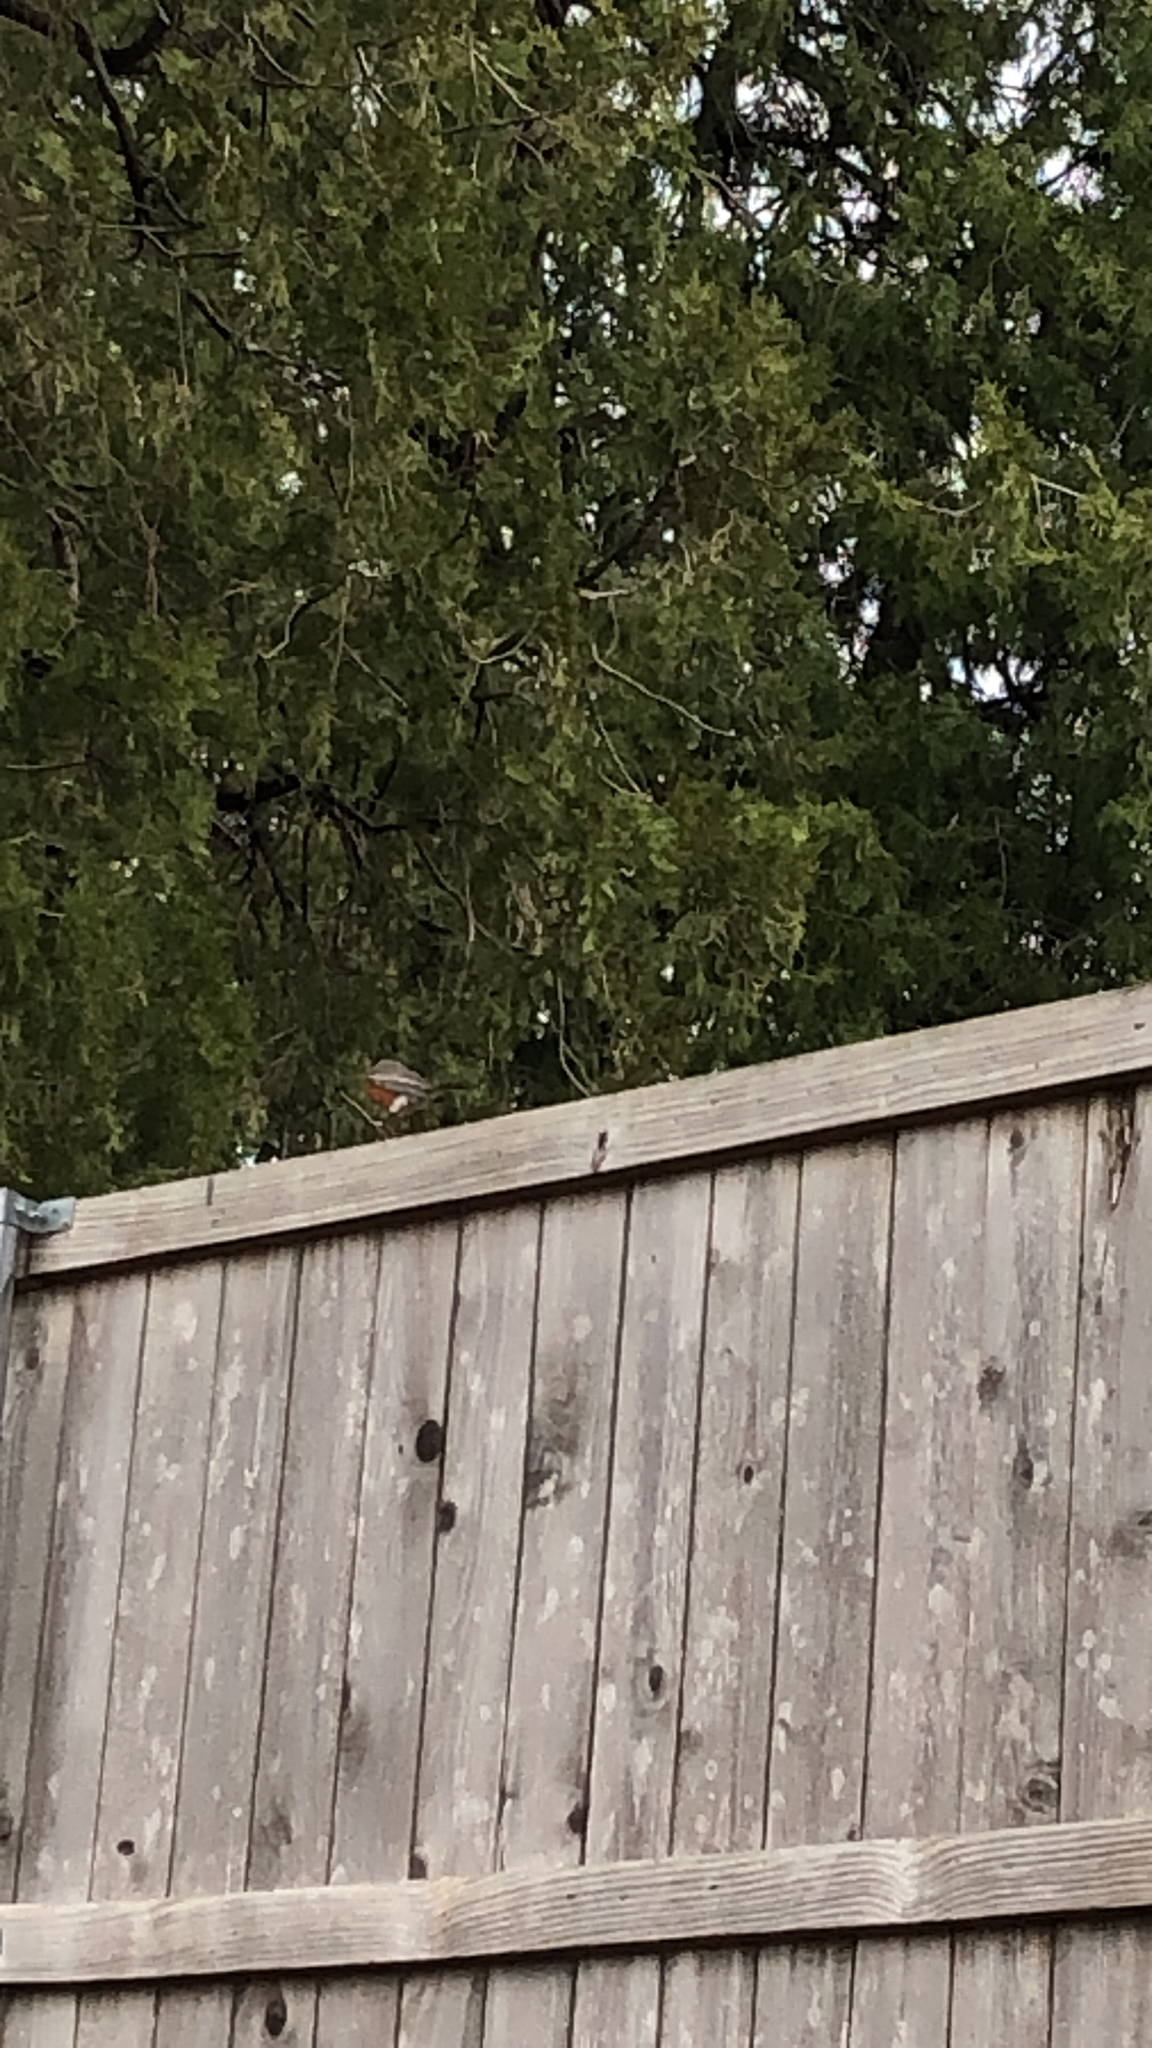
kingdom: Animalia
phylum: Chordata
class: Aves
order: Passeriformes
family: Turdidae
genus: Turdus
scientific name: Turdus migratorius
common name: American robin
